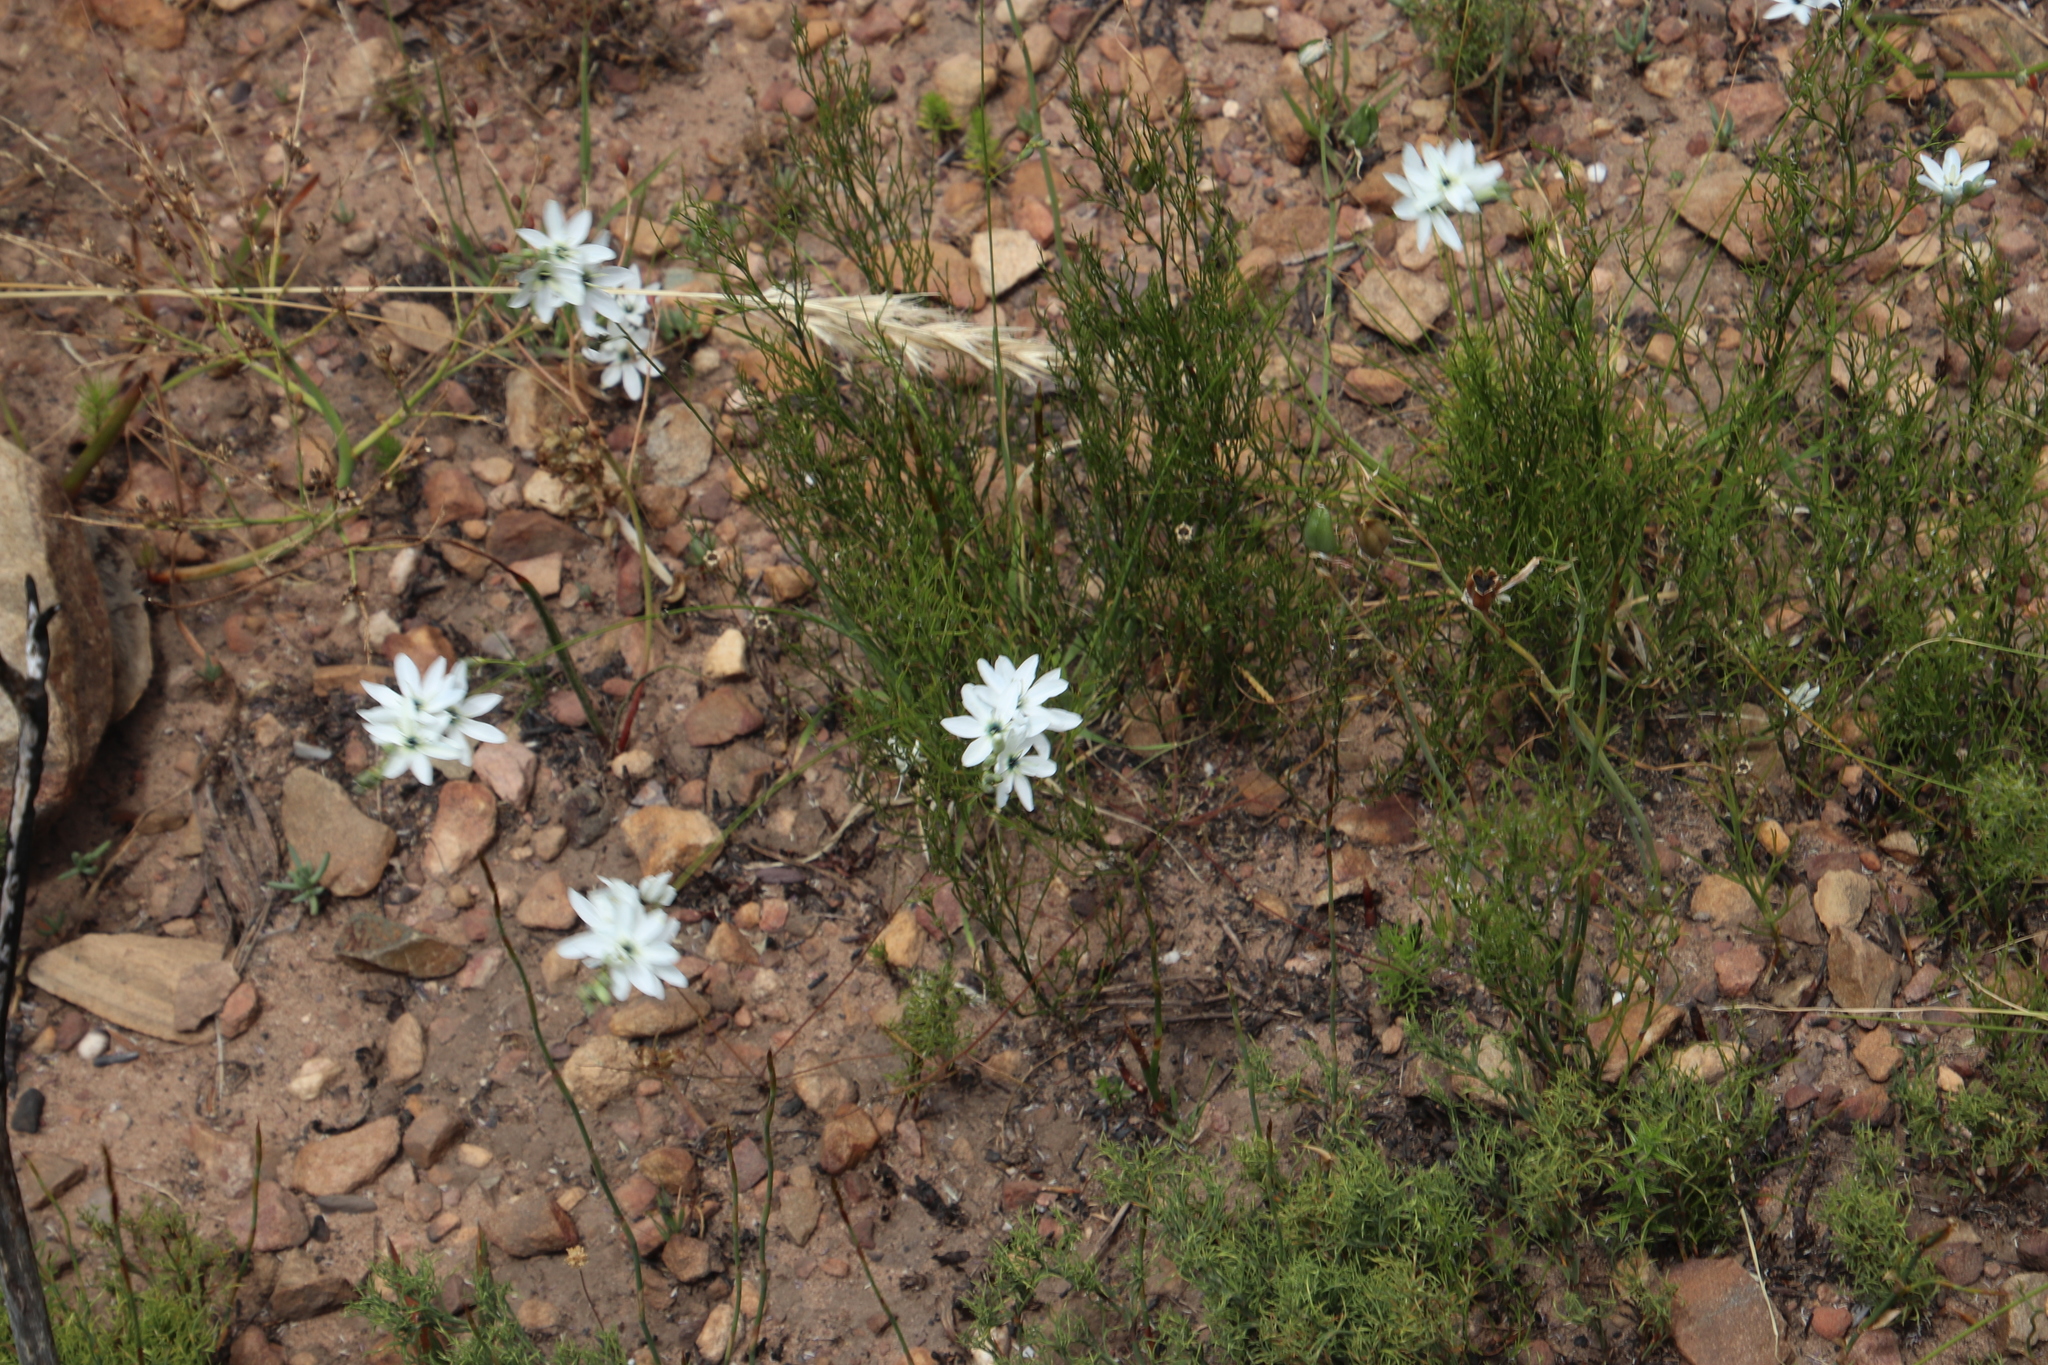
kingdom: Plantae
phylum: Tracheophyta
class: Liliopsida
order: Asparagales
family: Iridaceae
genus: Ixia
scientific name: Ixia polystachya
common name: White-and-yellow-flower cornlily
